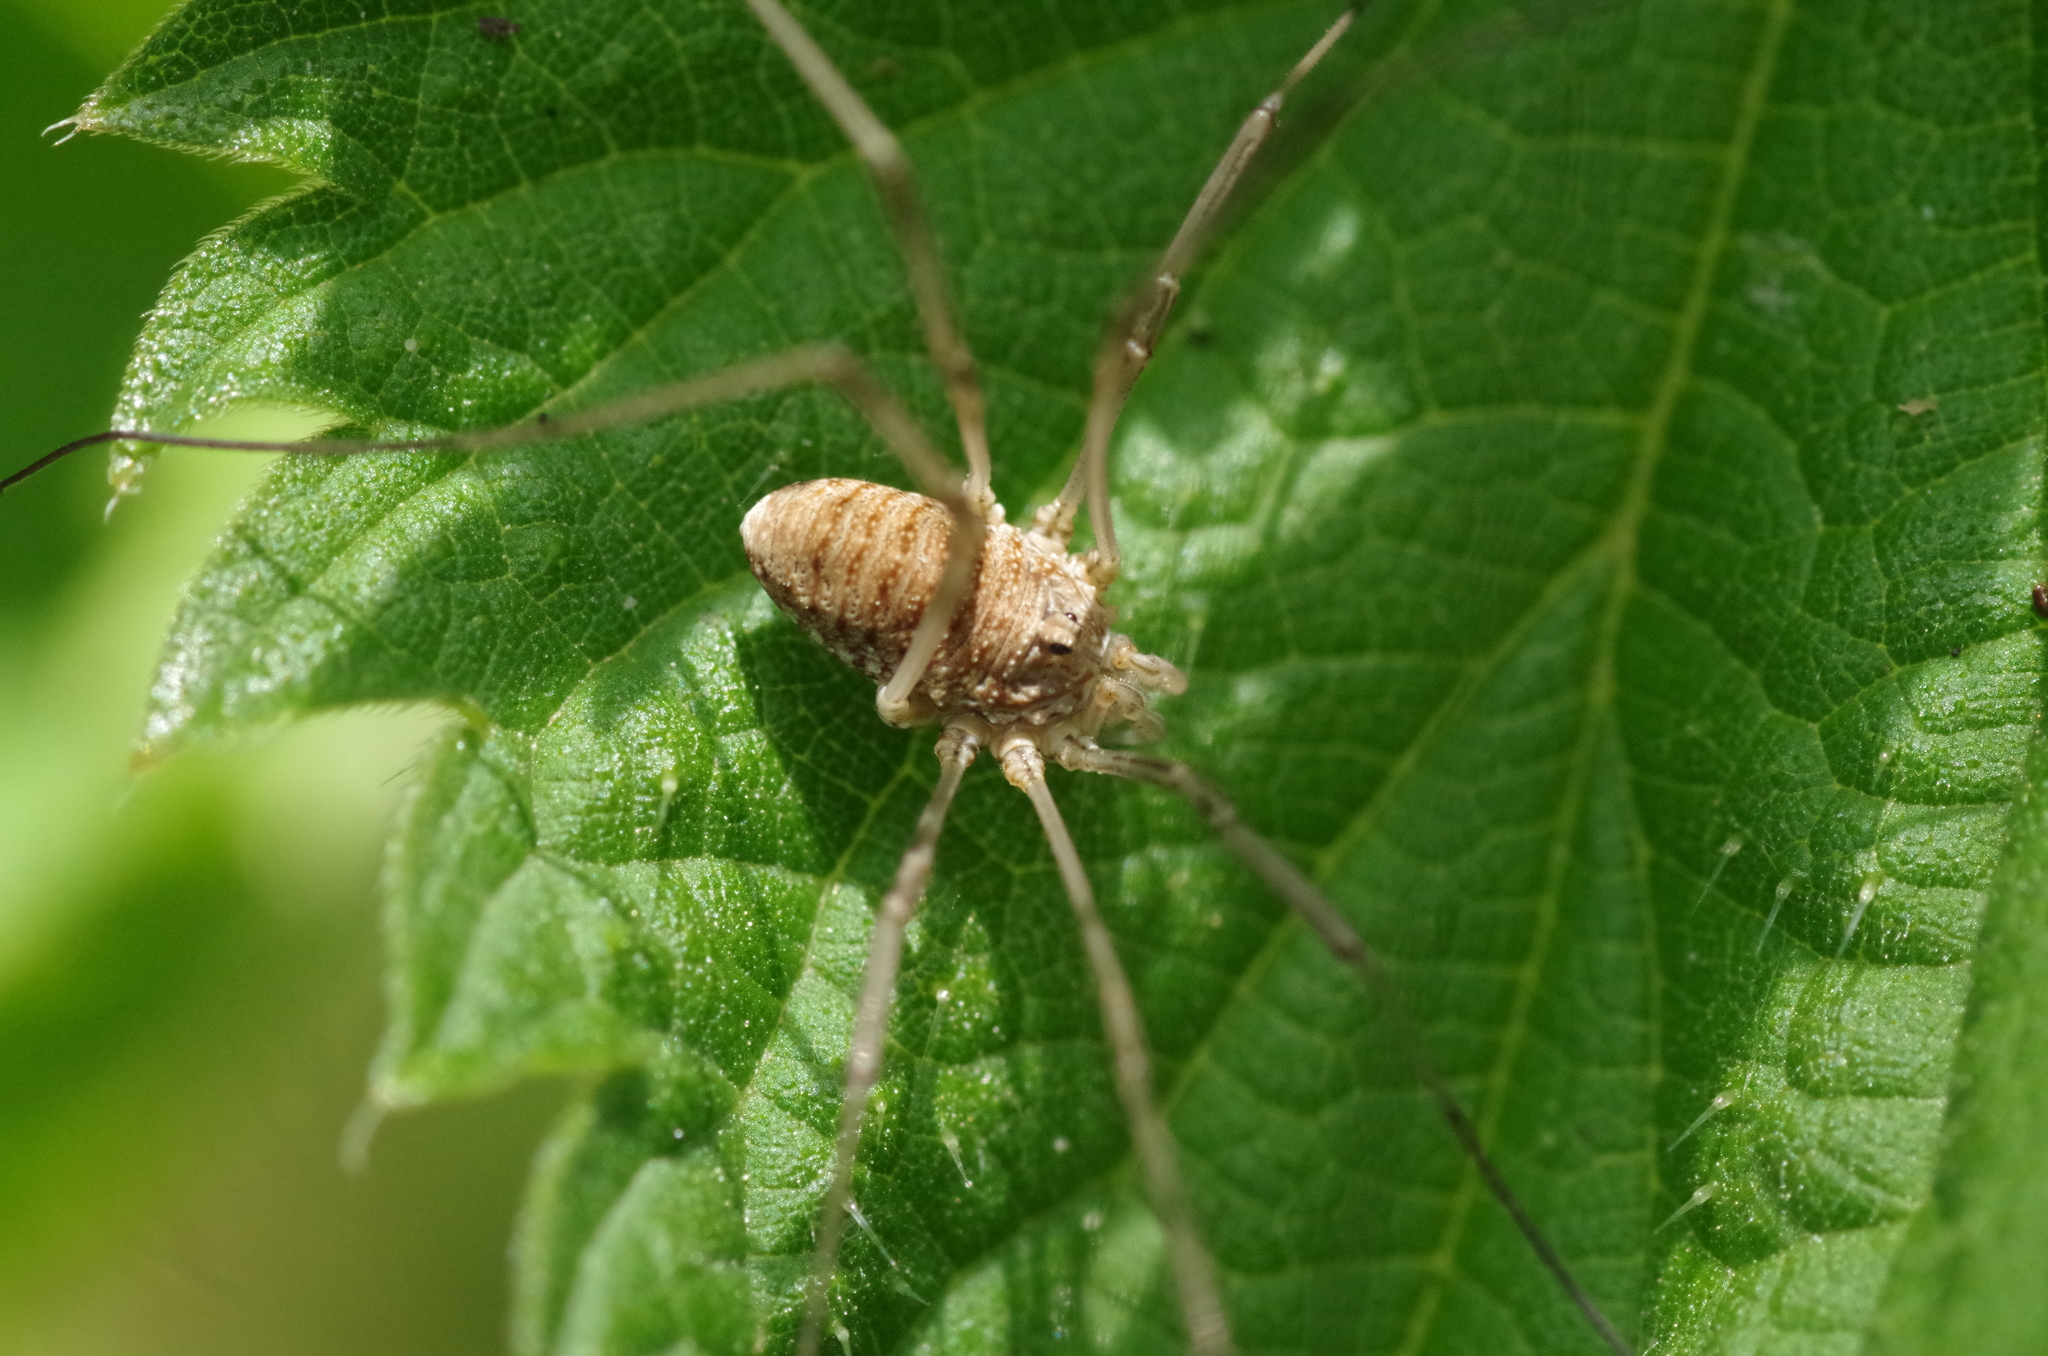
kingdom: Animalia
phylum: Arthropoda
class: Arachnida
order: Opiliones
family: Phalangiidae
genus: Phalangium
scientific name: Phalangium opilio
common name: Daddy longleg
